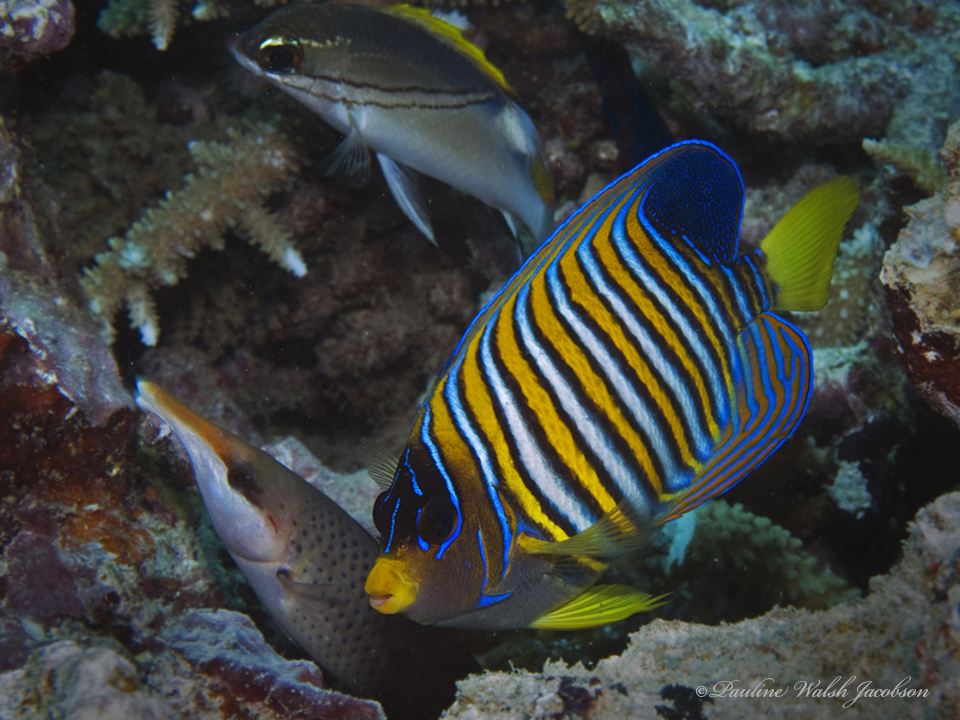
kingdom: Animalia
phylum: Chordata
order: Perciformes
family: Pomacanthidae
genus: Pygoplites
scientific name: Pygoplites diacanthus
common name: Regal angelfish
